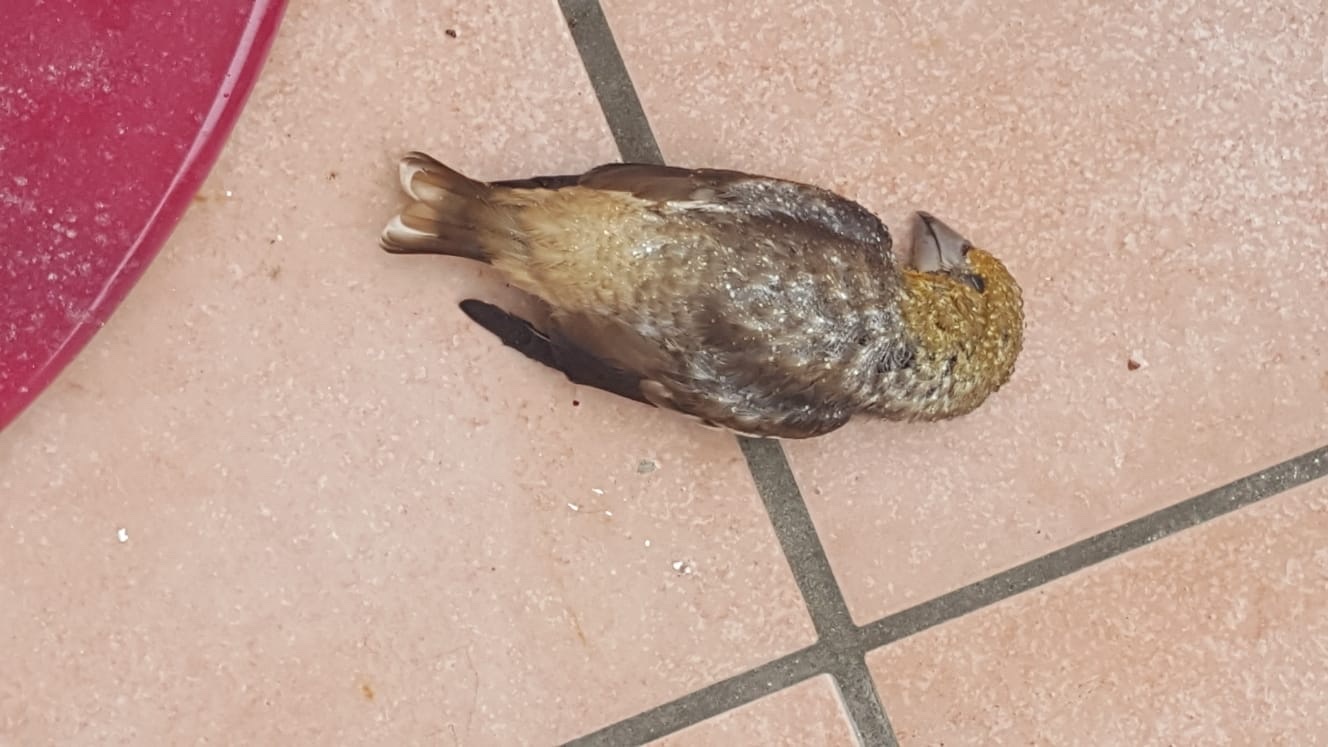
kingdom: Animalia
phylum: Chordata
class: Aves
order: Passeriformes
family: Fringillidae
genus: Coccothraustes
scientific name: Coccothraustes coccothraustes
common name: Hawfinch
